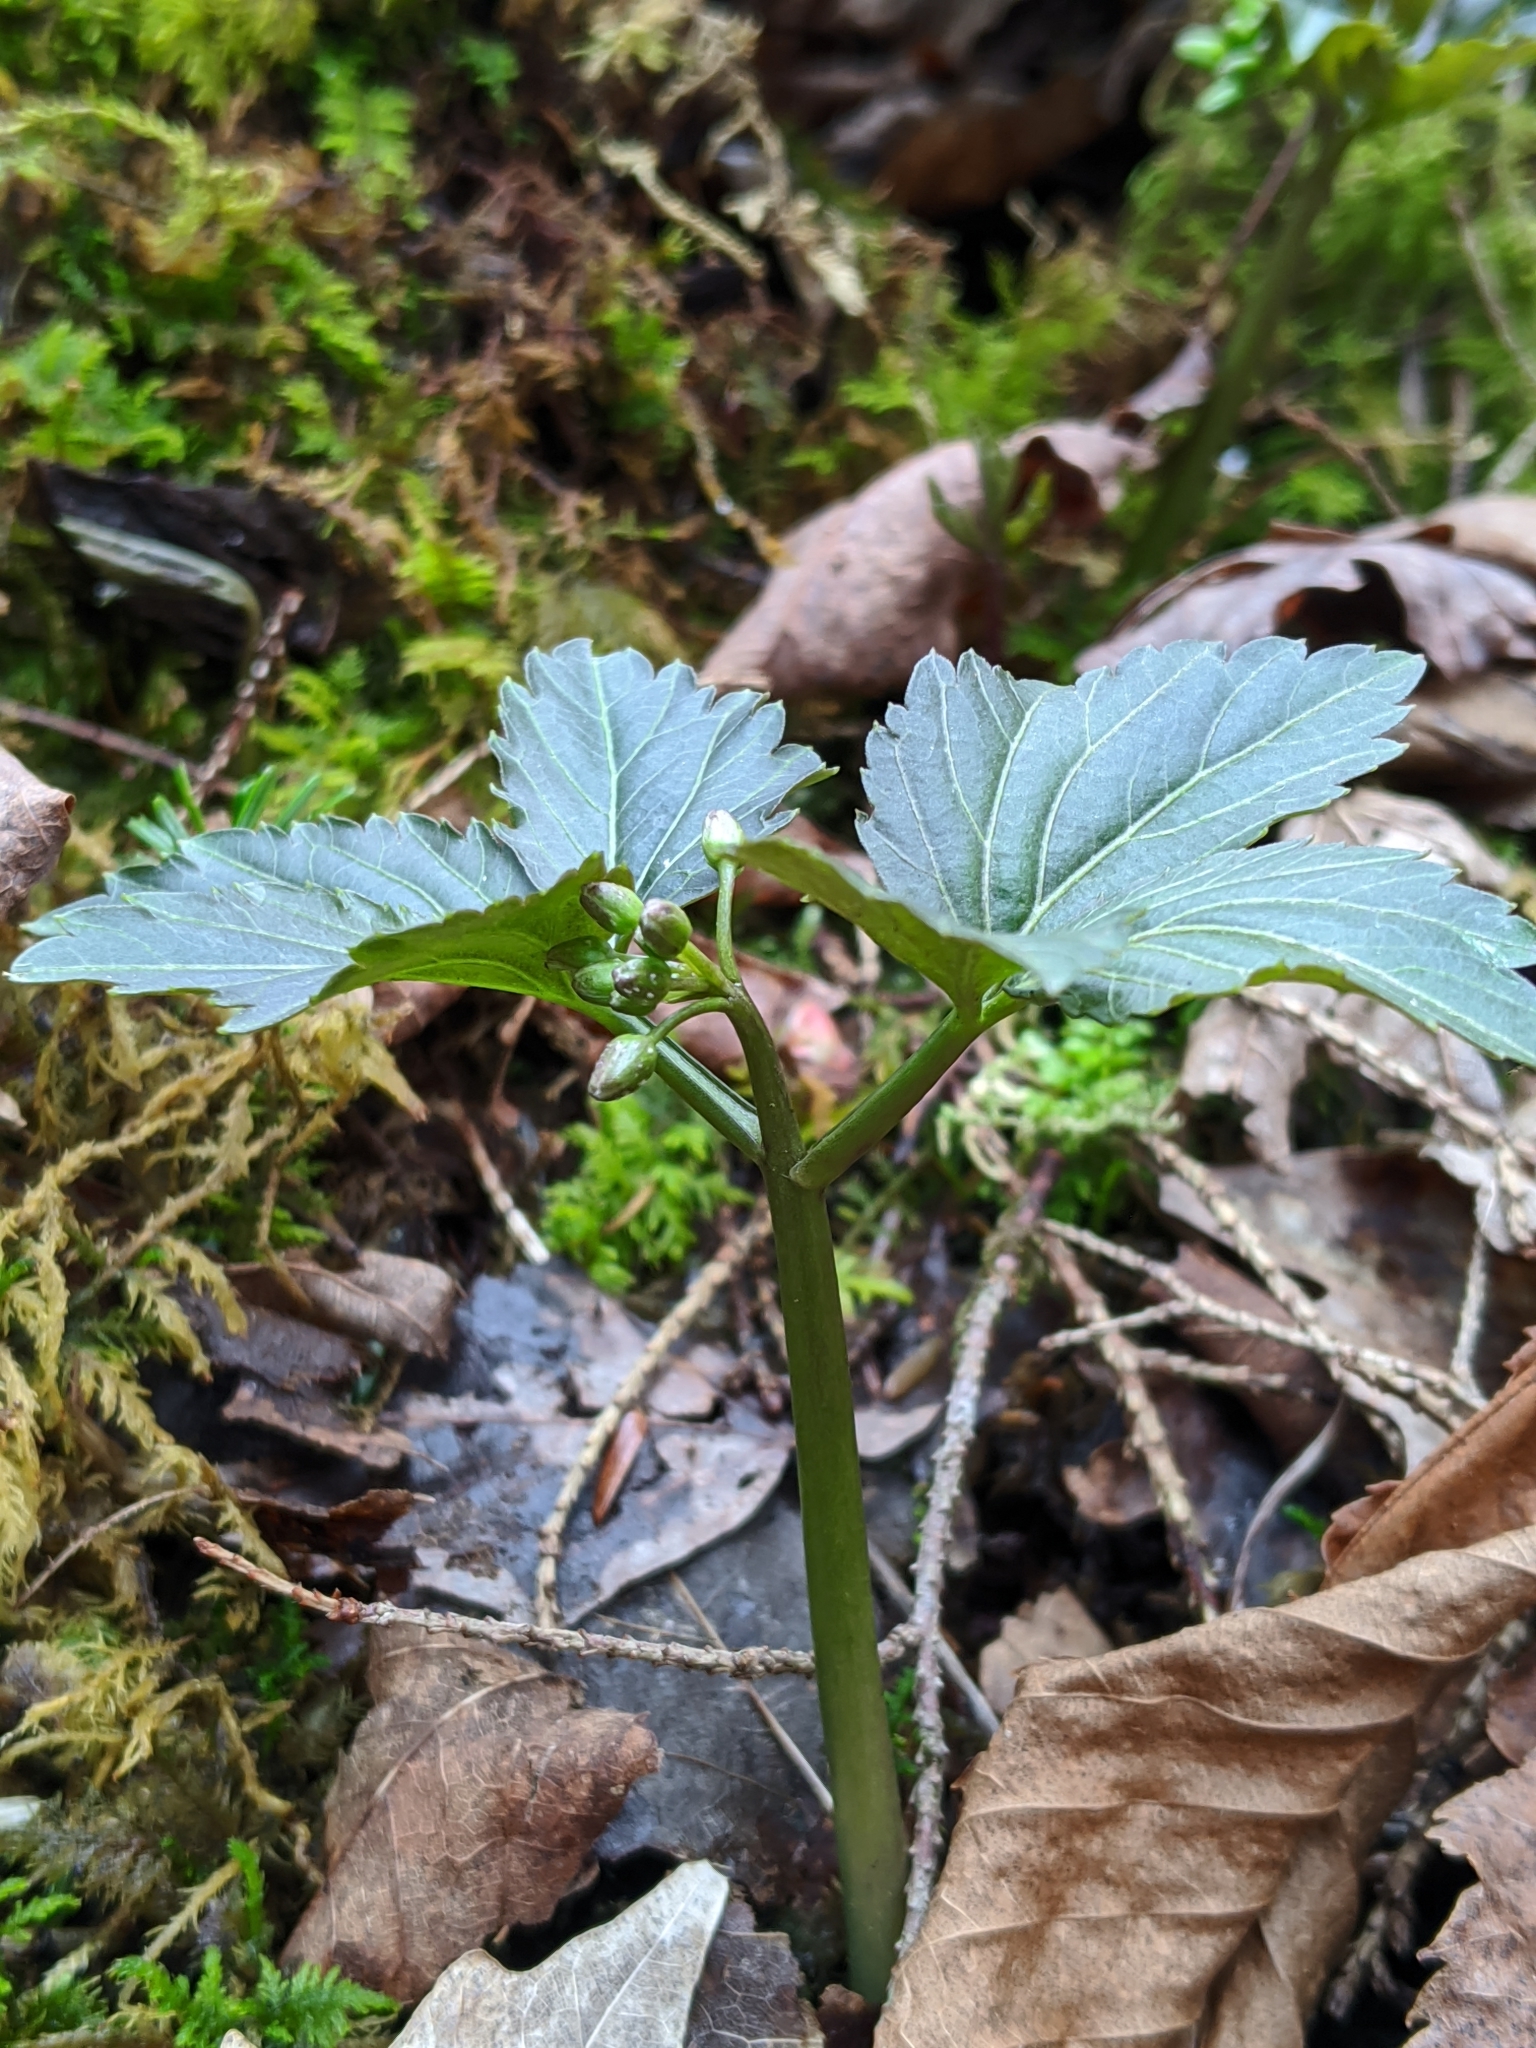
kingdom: Plantae
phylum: Tracheophyta
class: Magnoliopsida
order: Brassicales
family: Brassicaceae
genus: Cardamine
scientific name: Cardamine diphylla
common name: Broad-leaved toothwort
